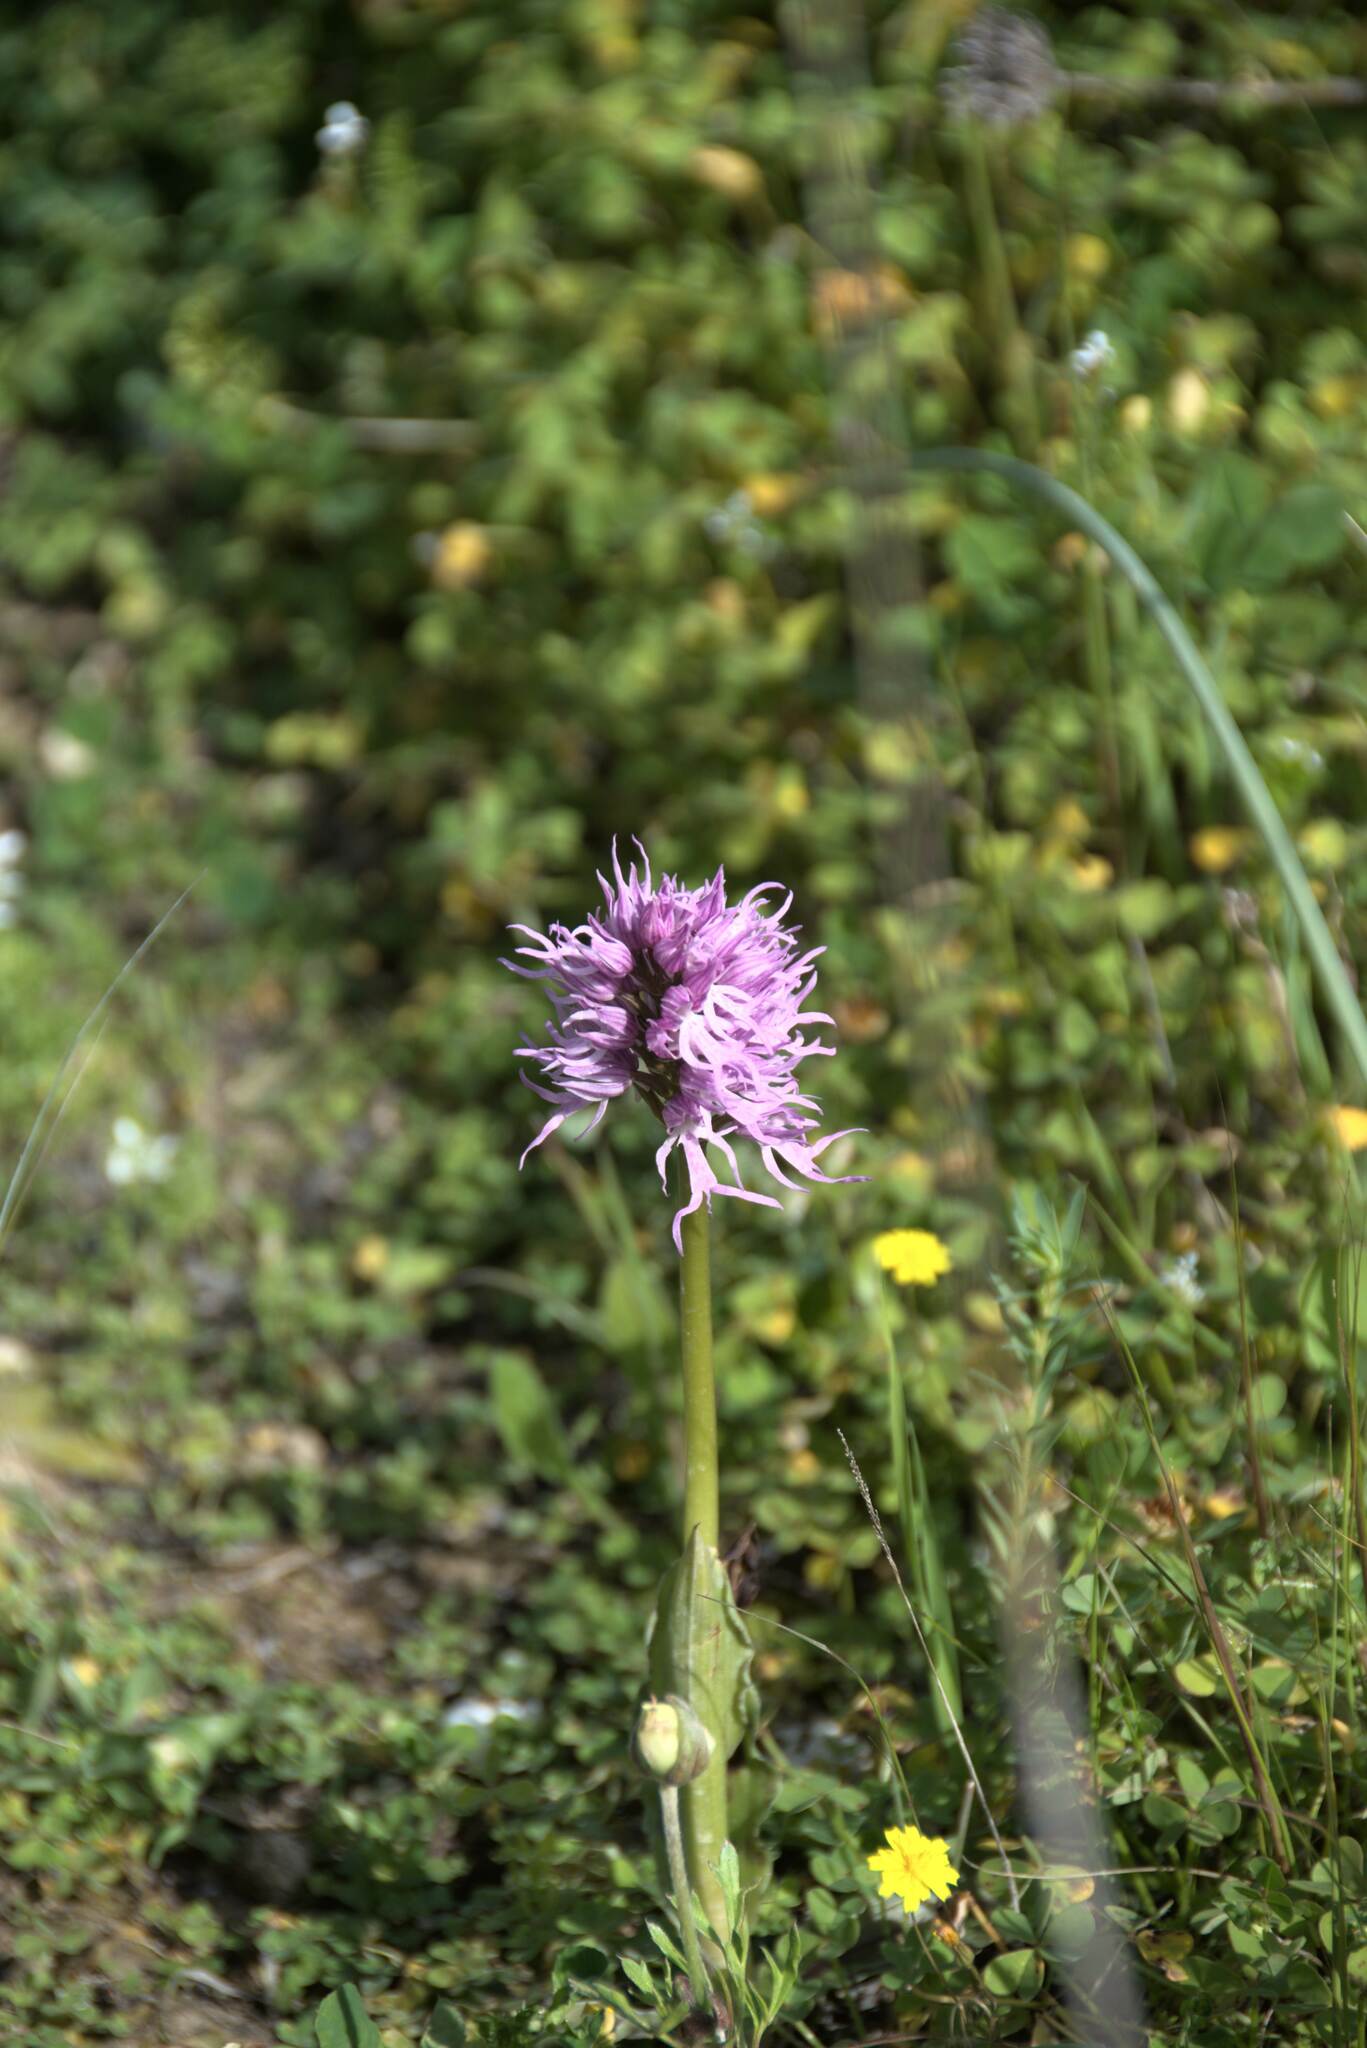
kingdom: Plantae
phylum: Tracheophyta
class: Liliopsida
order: Asparagales
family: Orchidaceae
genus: Orchis
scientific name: Orchis italica
